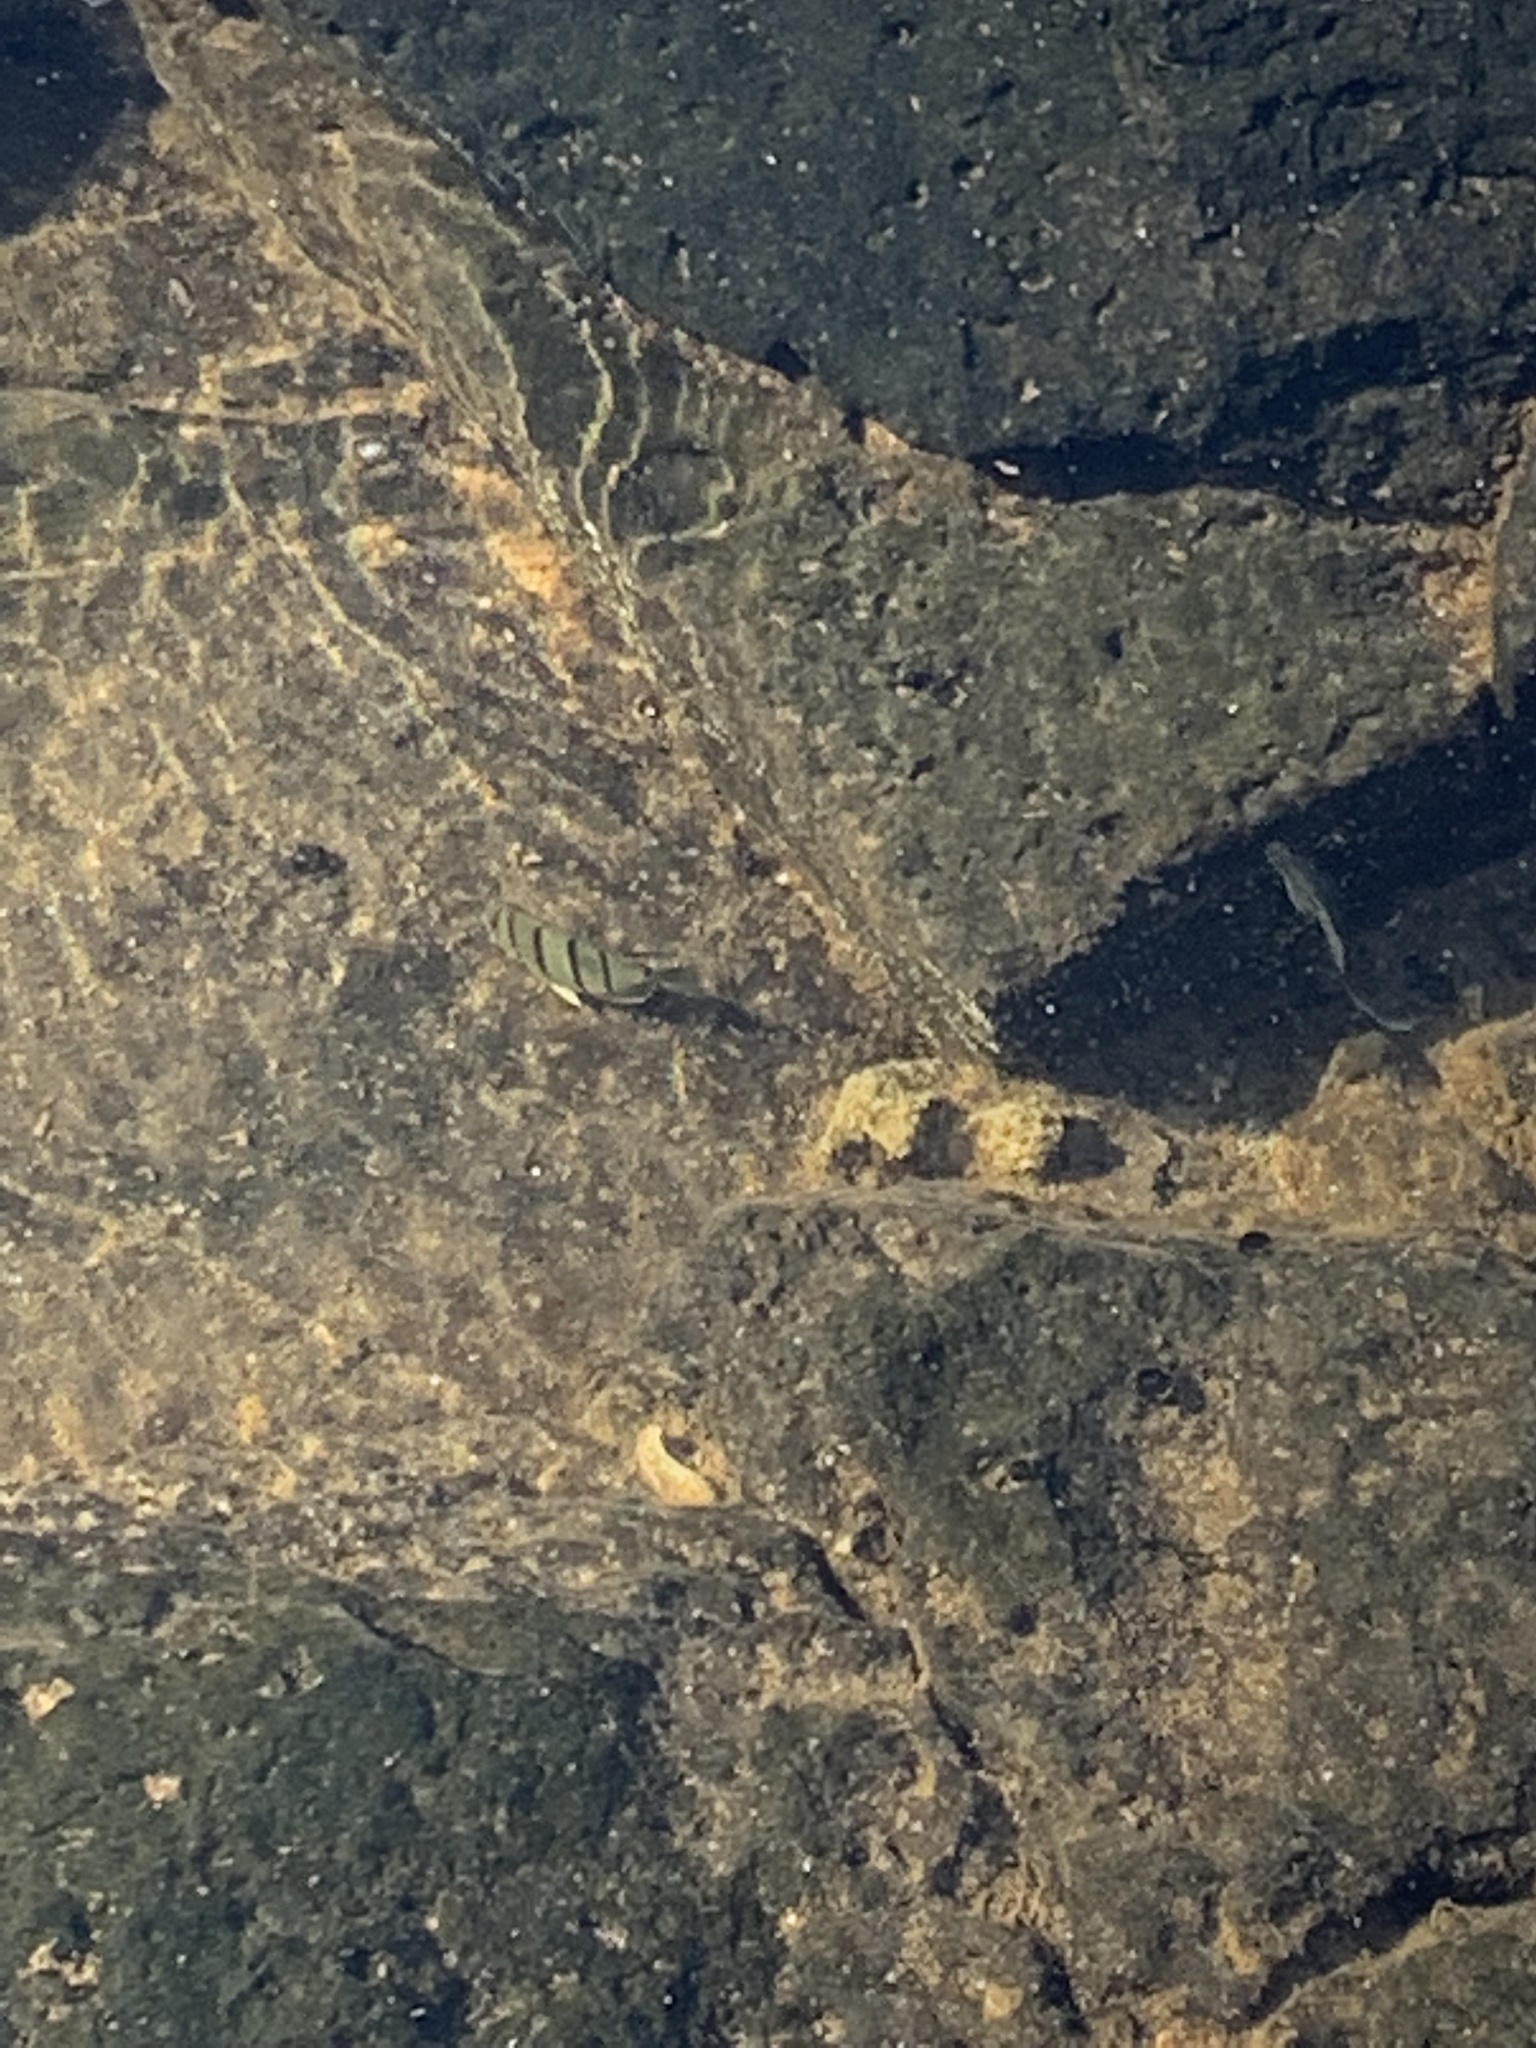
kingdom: Animalia
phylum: Chordata
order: Perciformes
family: Acanthuridae
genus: Acanthurus
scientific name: Acanthurus triostegus
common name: Convict surgeonfish
